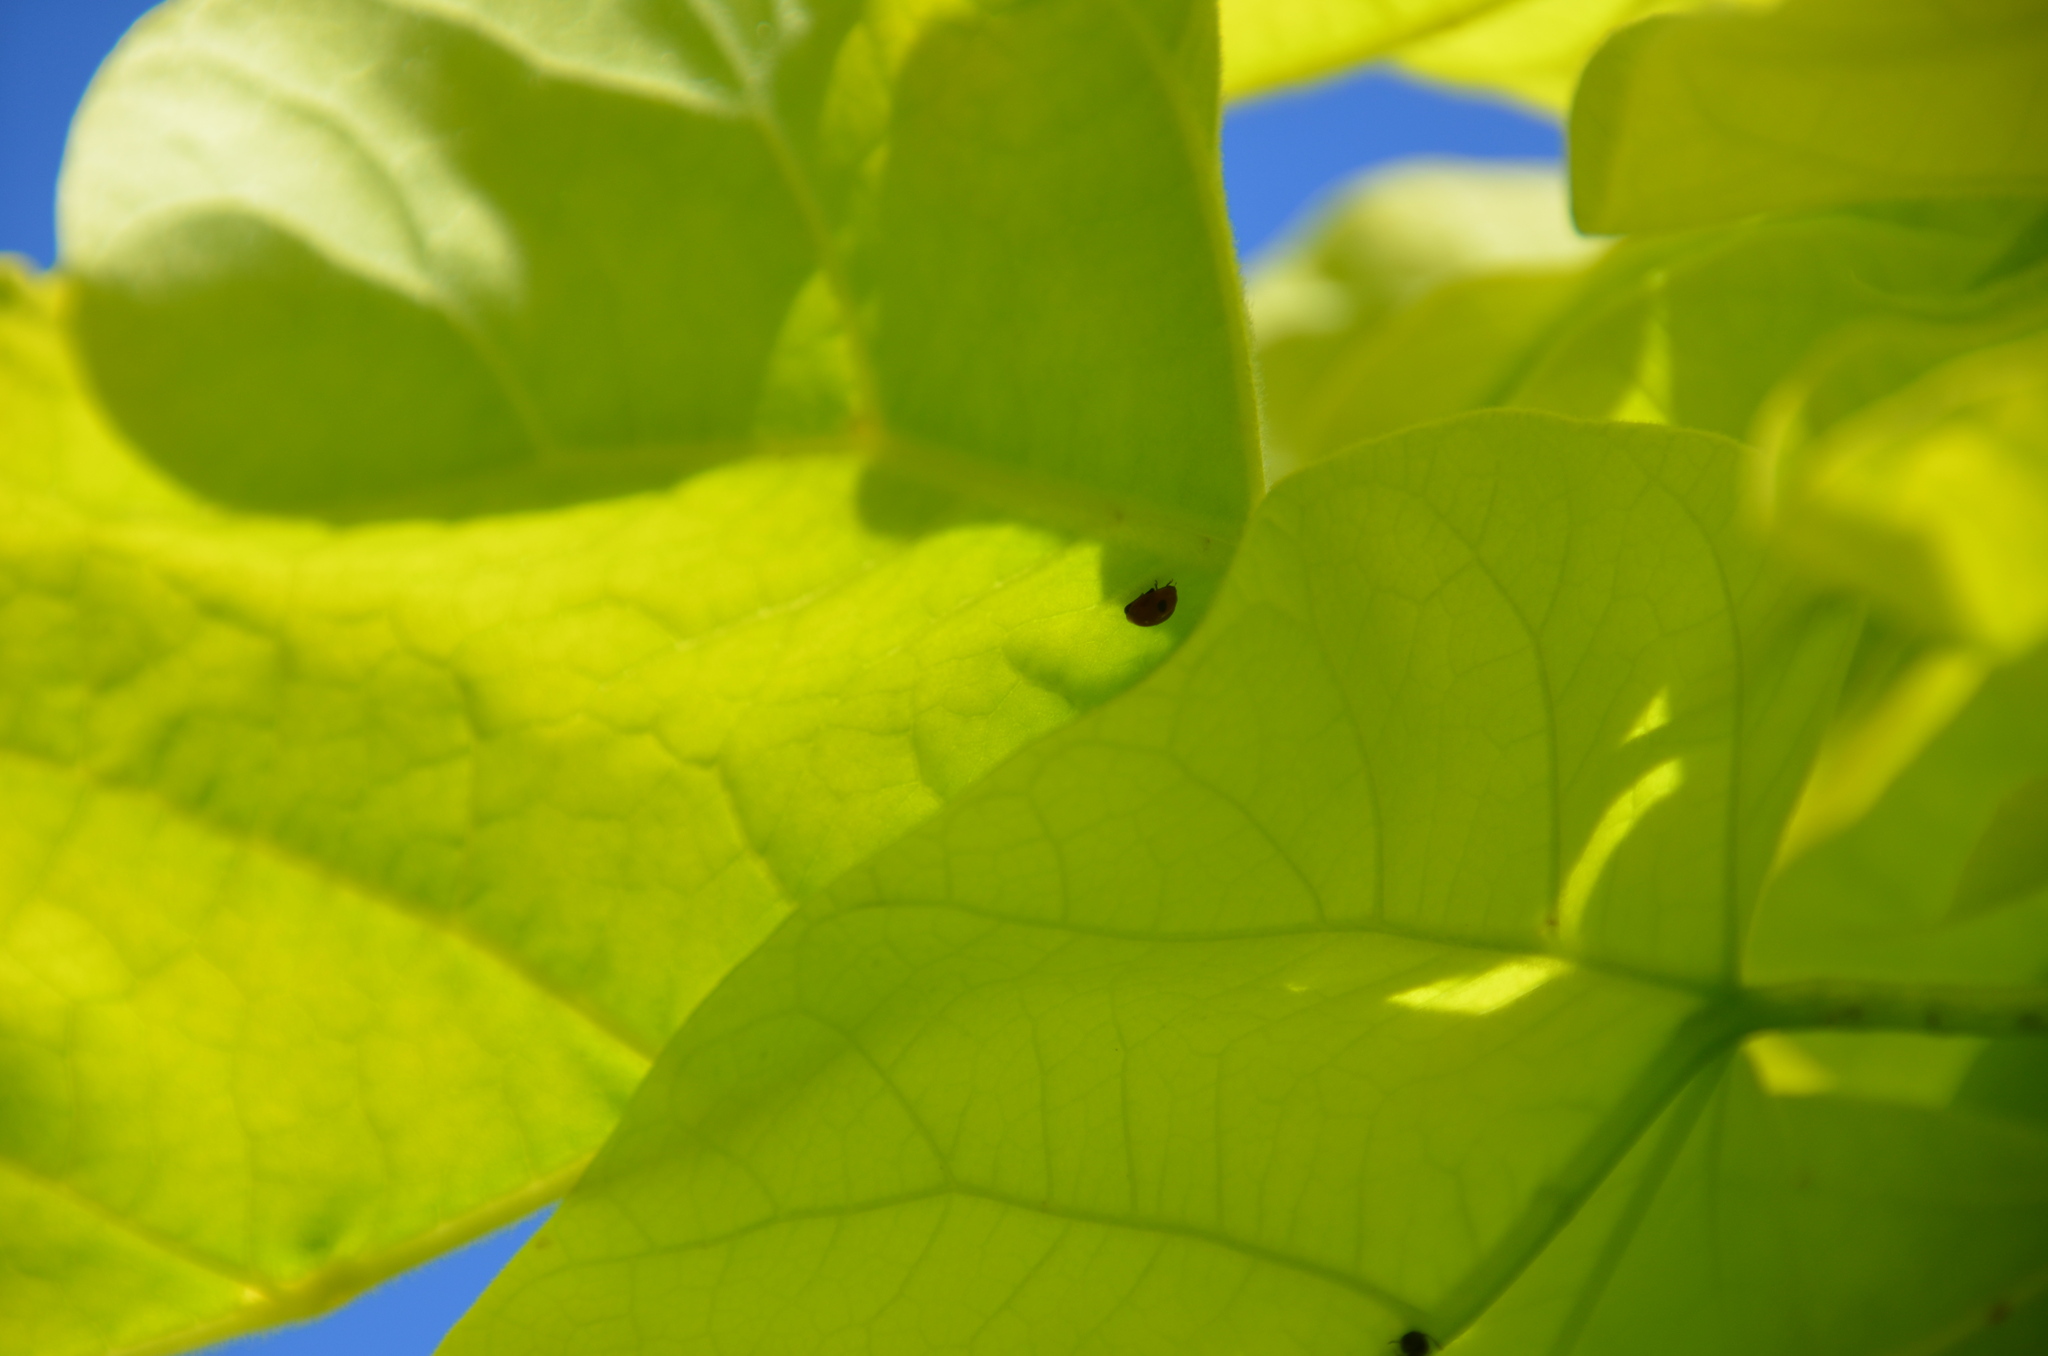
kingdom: Animalia
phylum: Arthropoda
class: Insecta
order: Coleoptera
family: Coccinellidae
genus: Adalia
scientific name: Adalia bipunctata
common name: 2-spot ladybird
